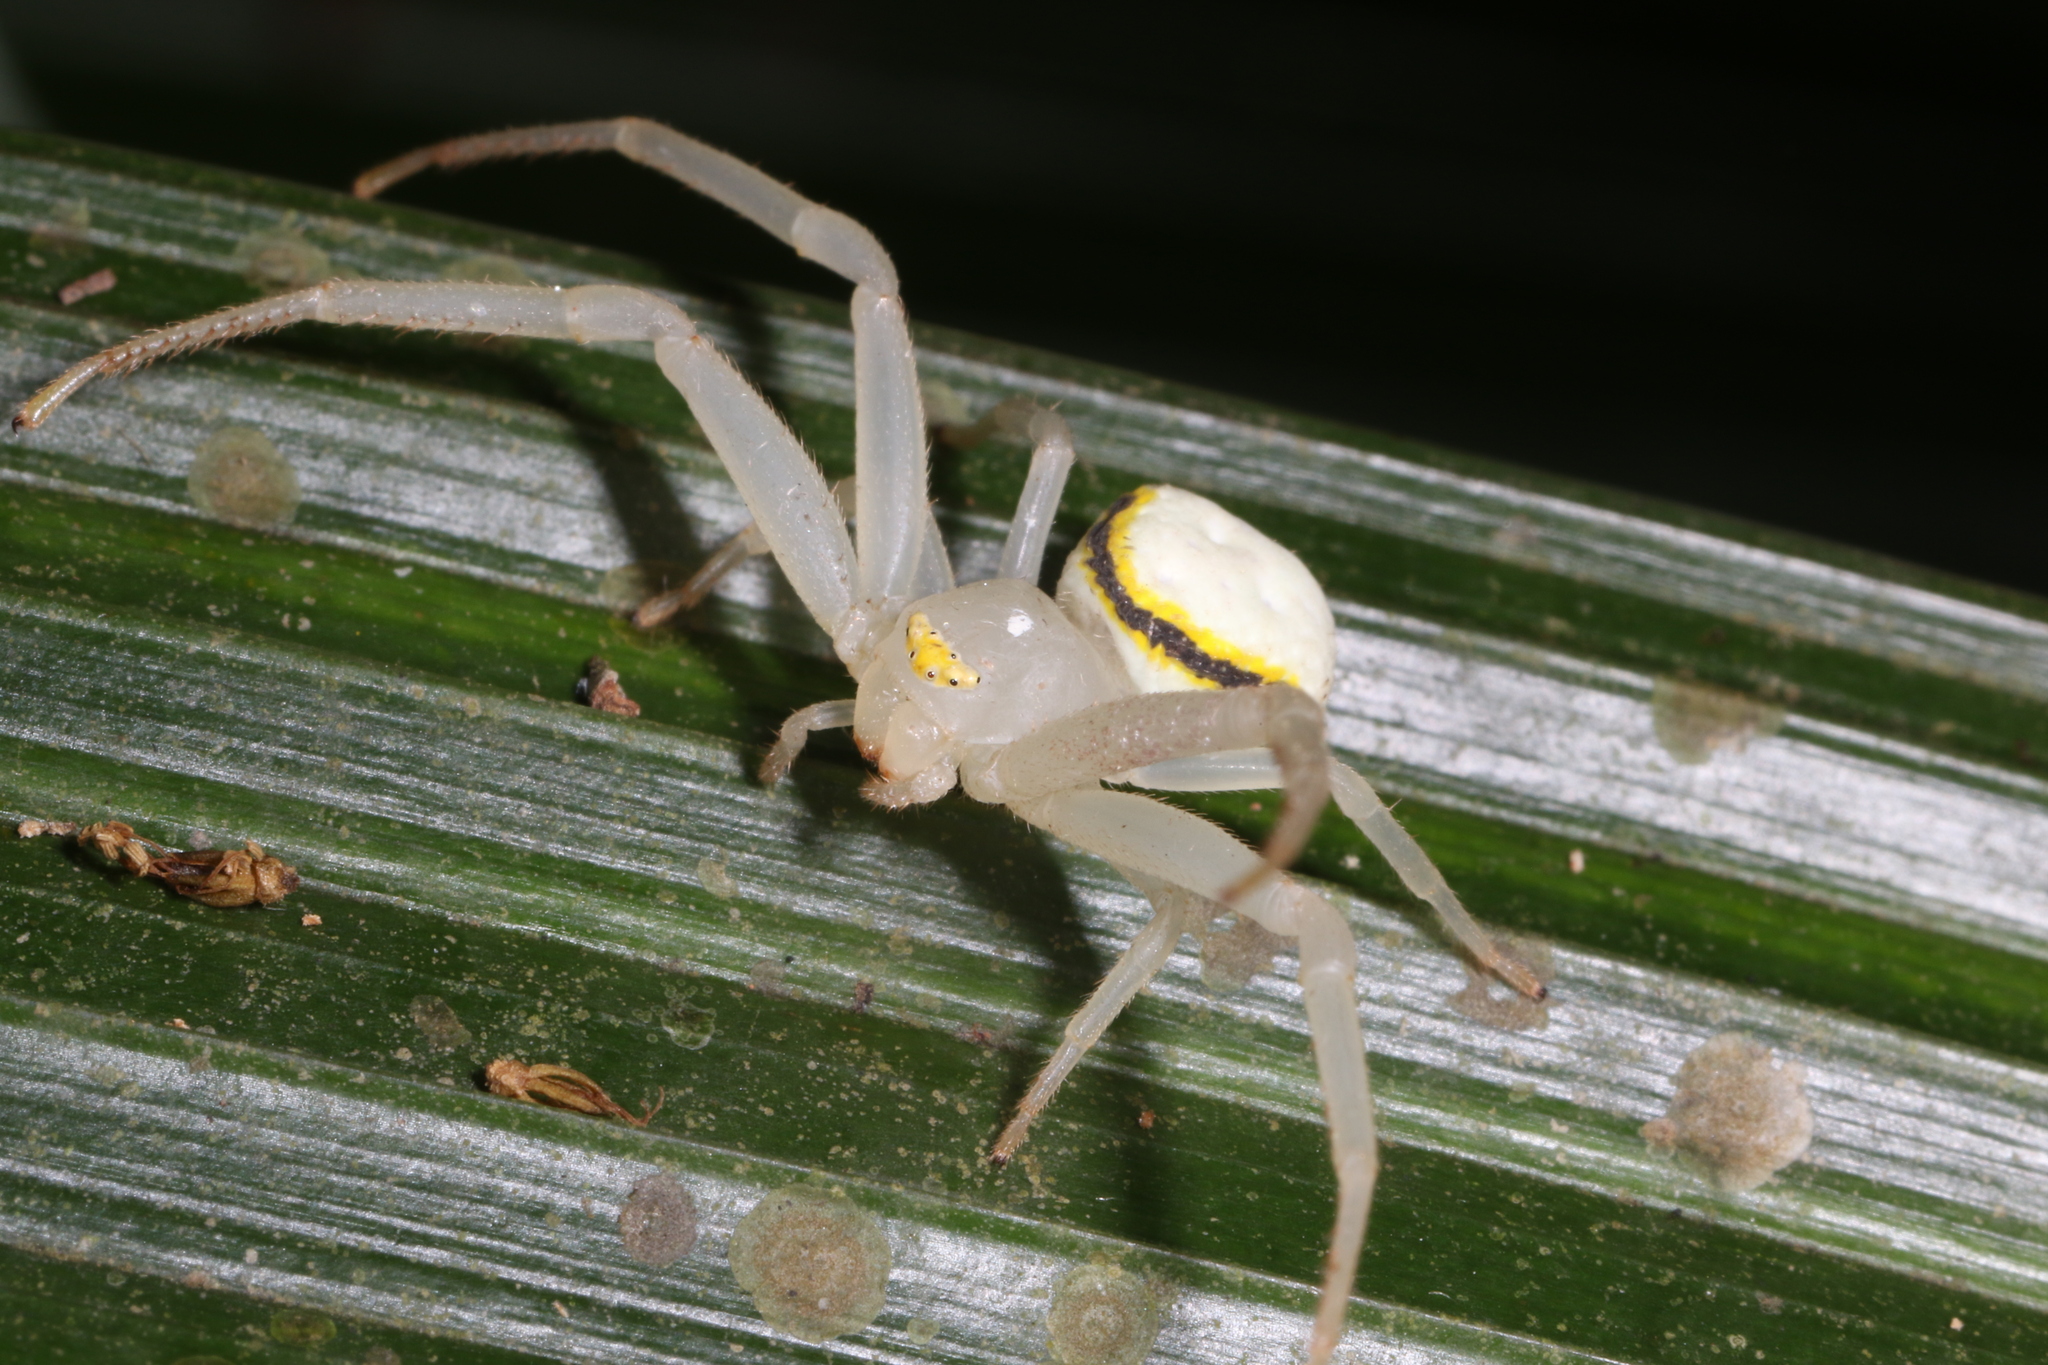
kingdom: Animalia
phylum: Arthropoda
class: Arachnida
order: Araneae
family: Thomisidae
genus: Misumenops
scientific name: Misumenops callinurus
